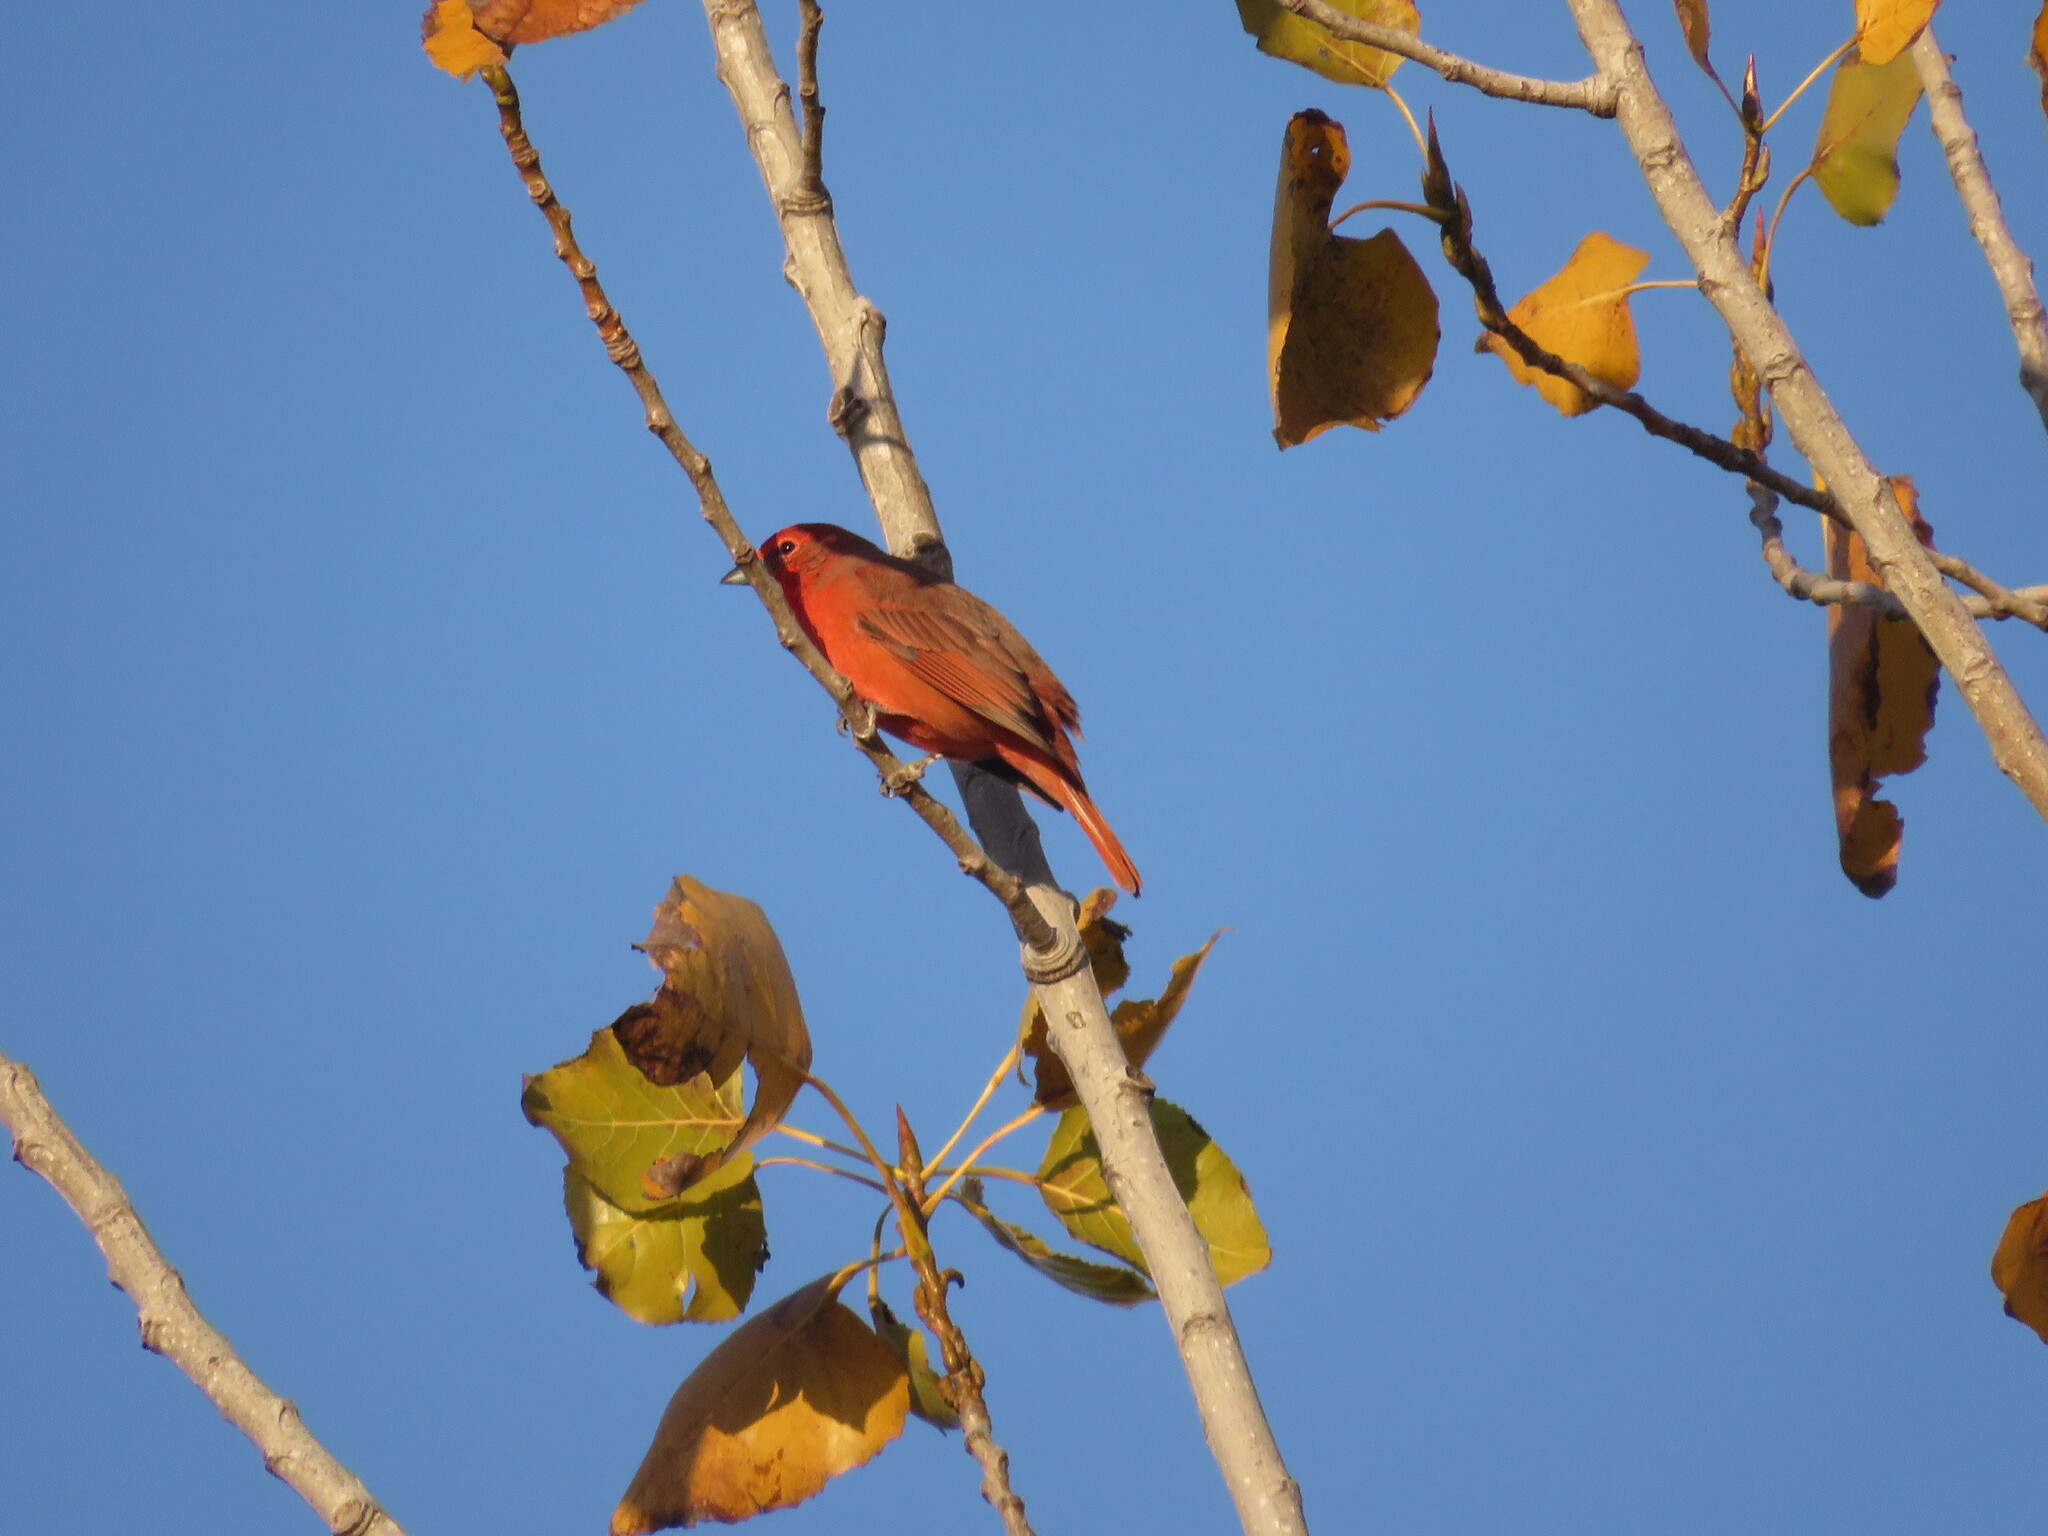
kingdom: Animalia
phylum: Chordata
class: Aves
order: Passeriformes
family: Cardinalidae
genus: Piranga
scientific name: Piranga flava
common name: Red tanager
